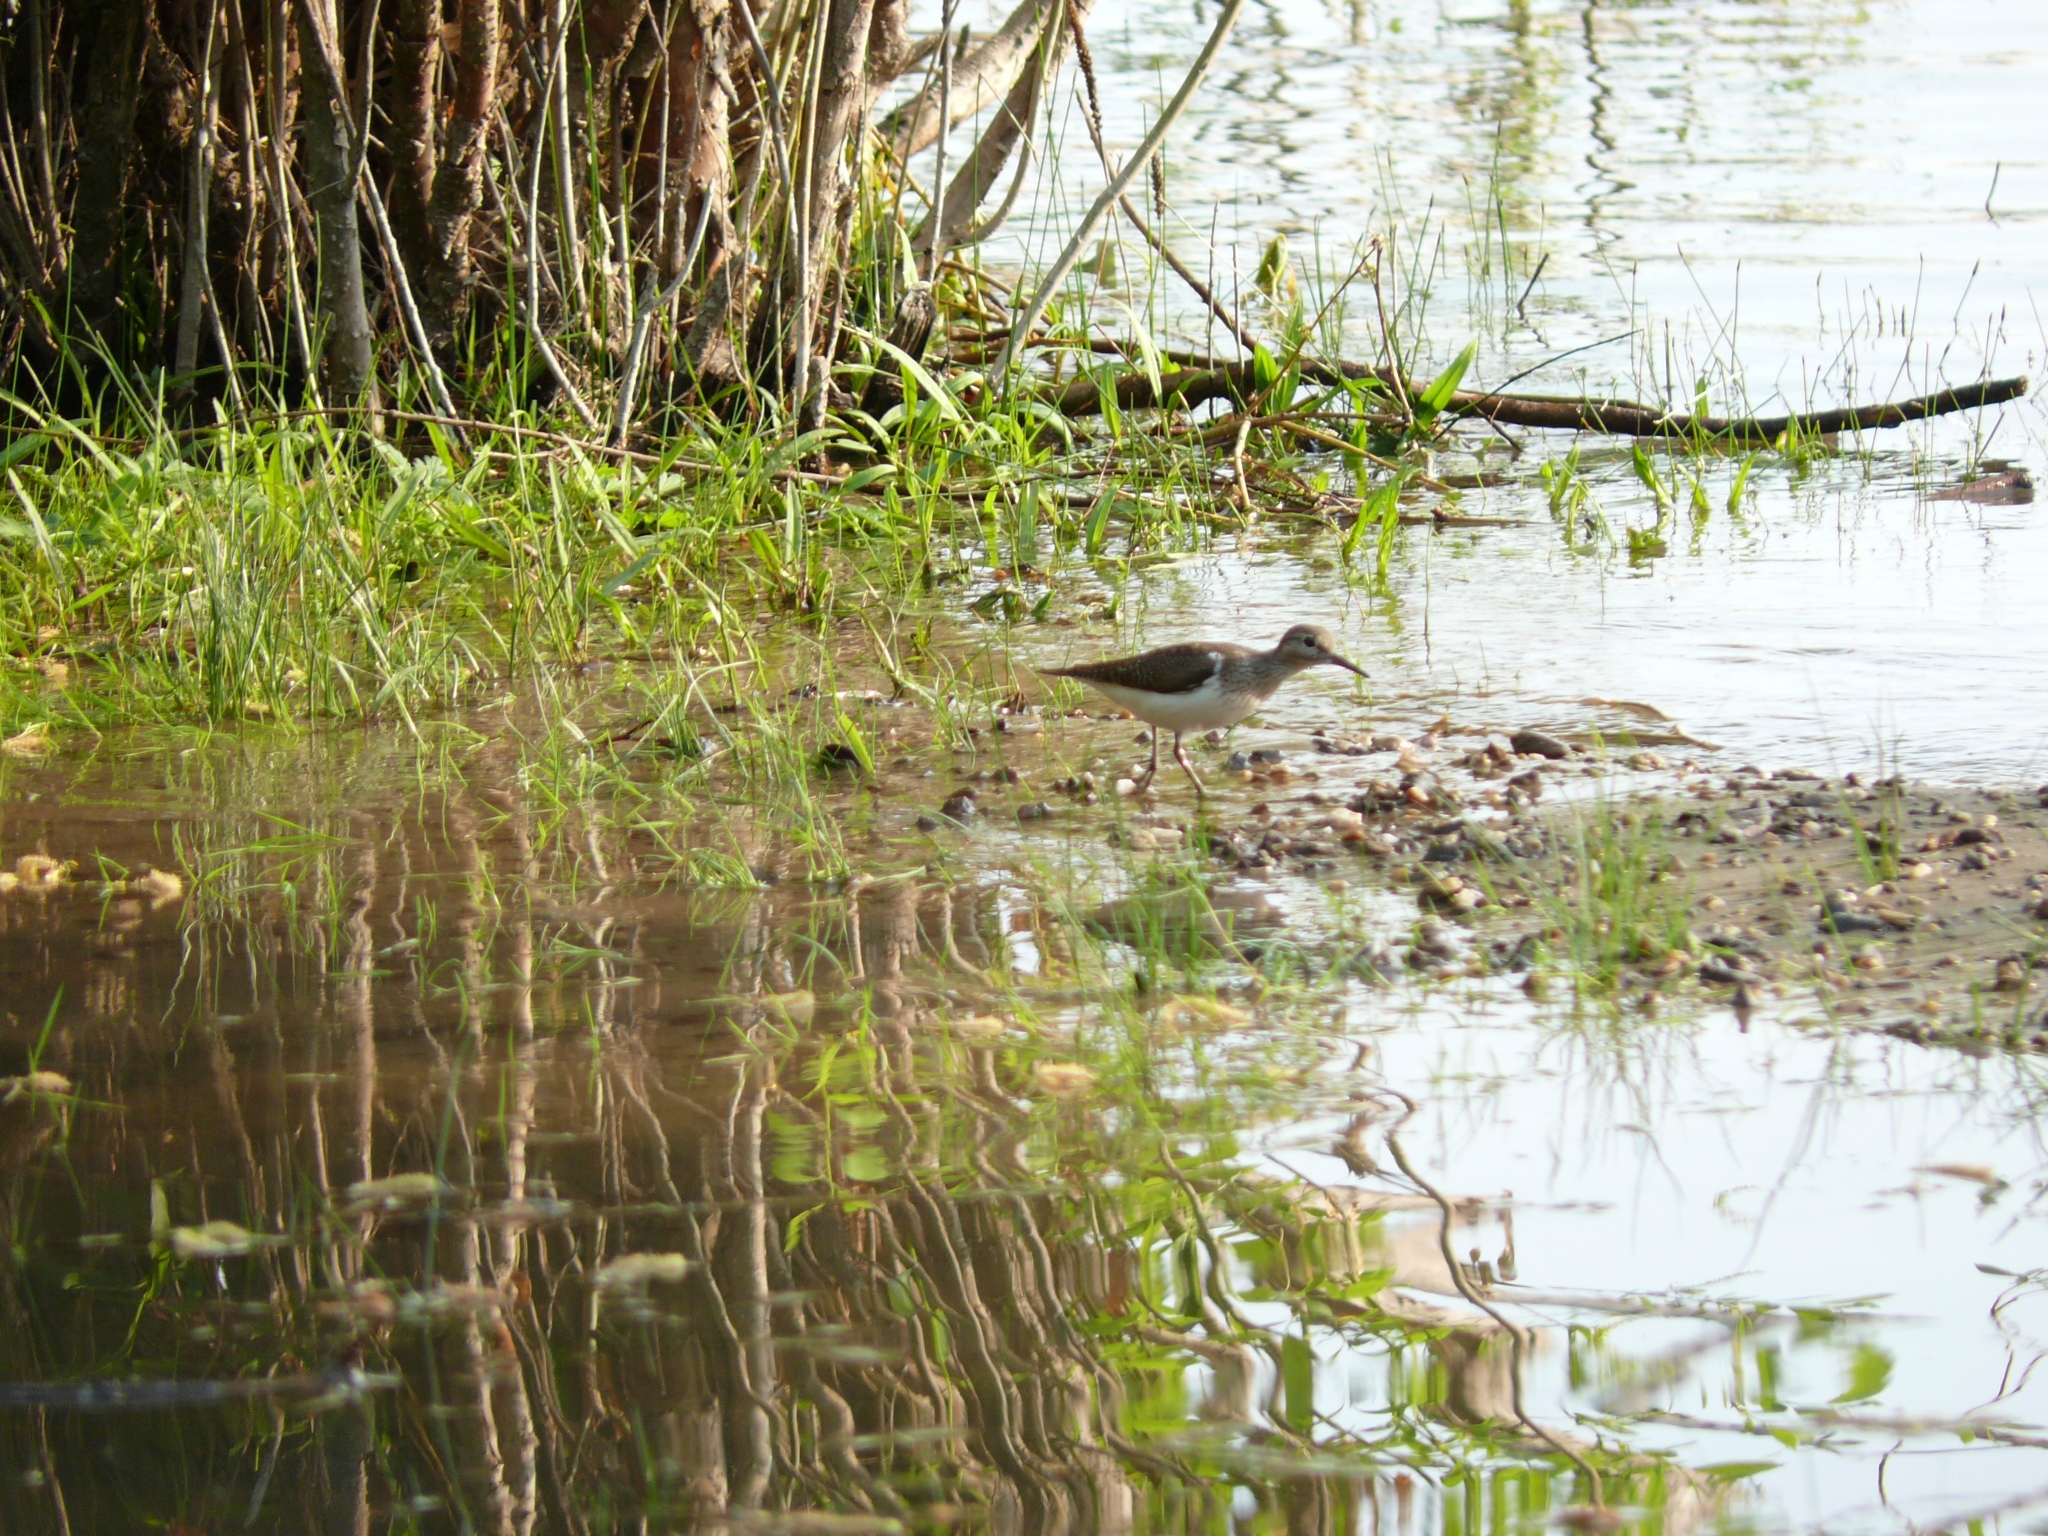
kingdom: Animalia
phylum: Chordata
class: Aves
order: Charadriiformes
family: Scolopacidae
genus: Actitis
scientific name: Actitis hypoleucos
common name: Common sandpiper
